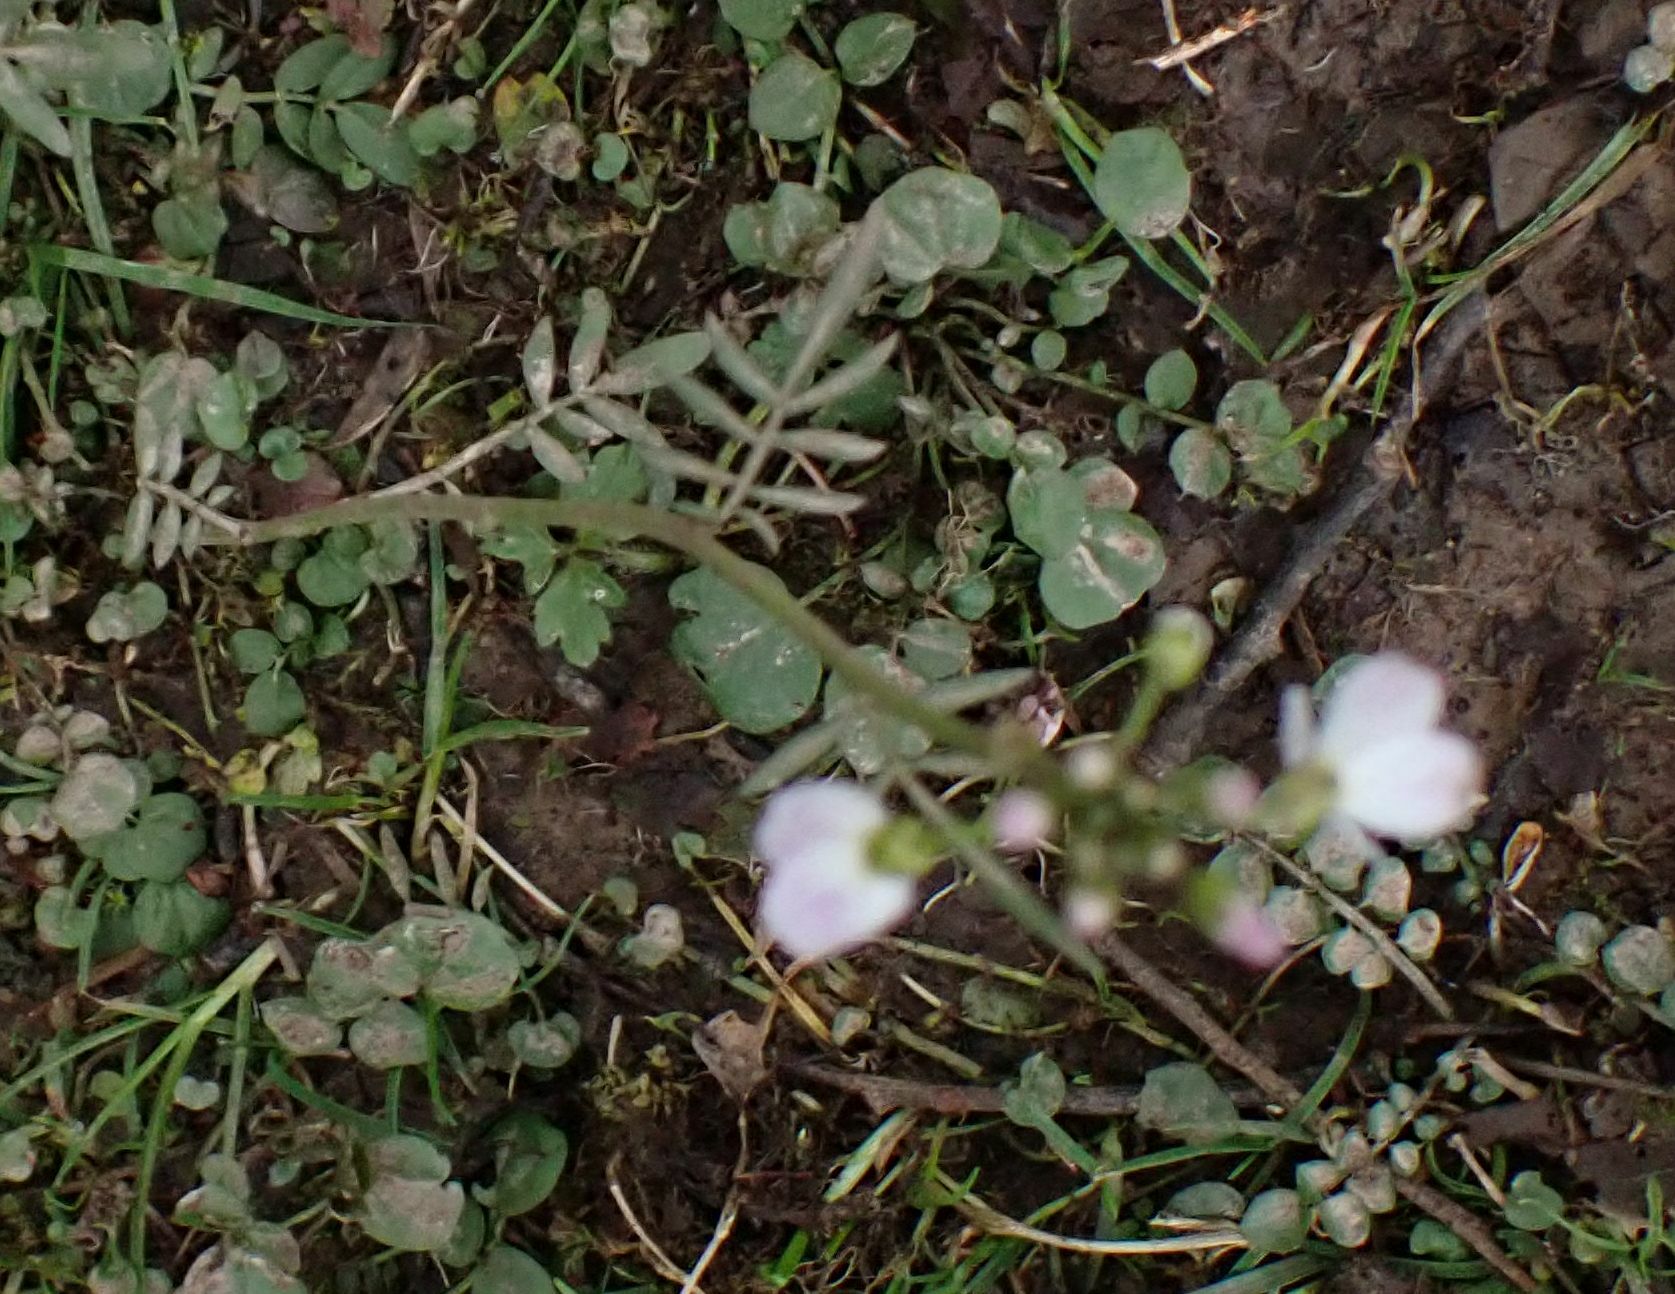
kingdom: Plantae
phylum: Tracheophyta
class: Magnoliopsida
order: Brassicales
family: Brassicaceae
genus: Cardamine
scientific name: Cardamine pratensis
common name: Cuckoo flower
